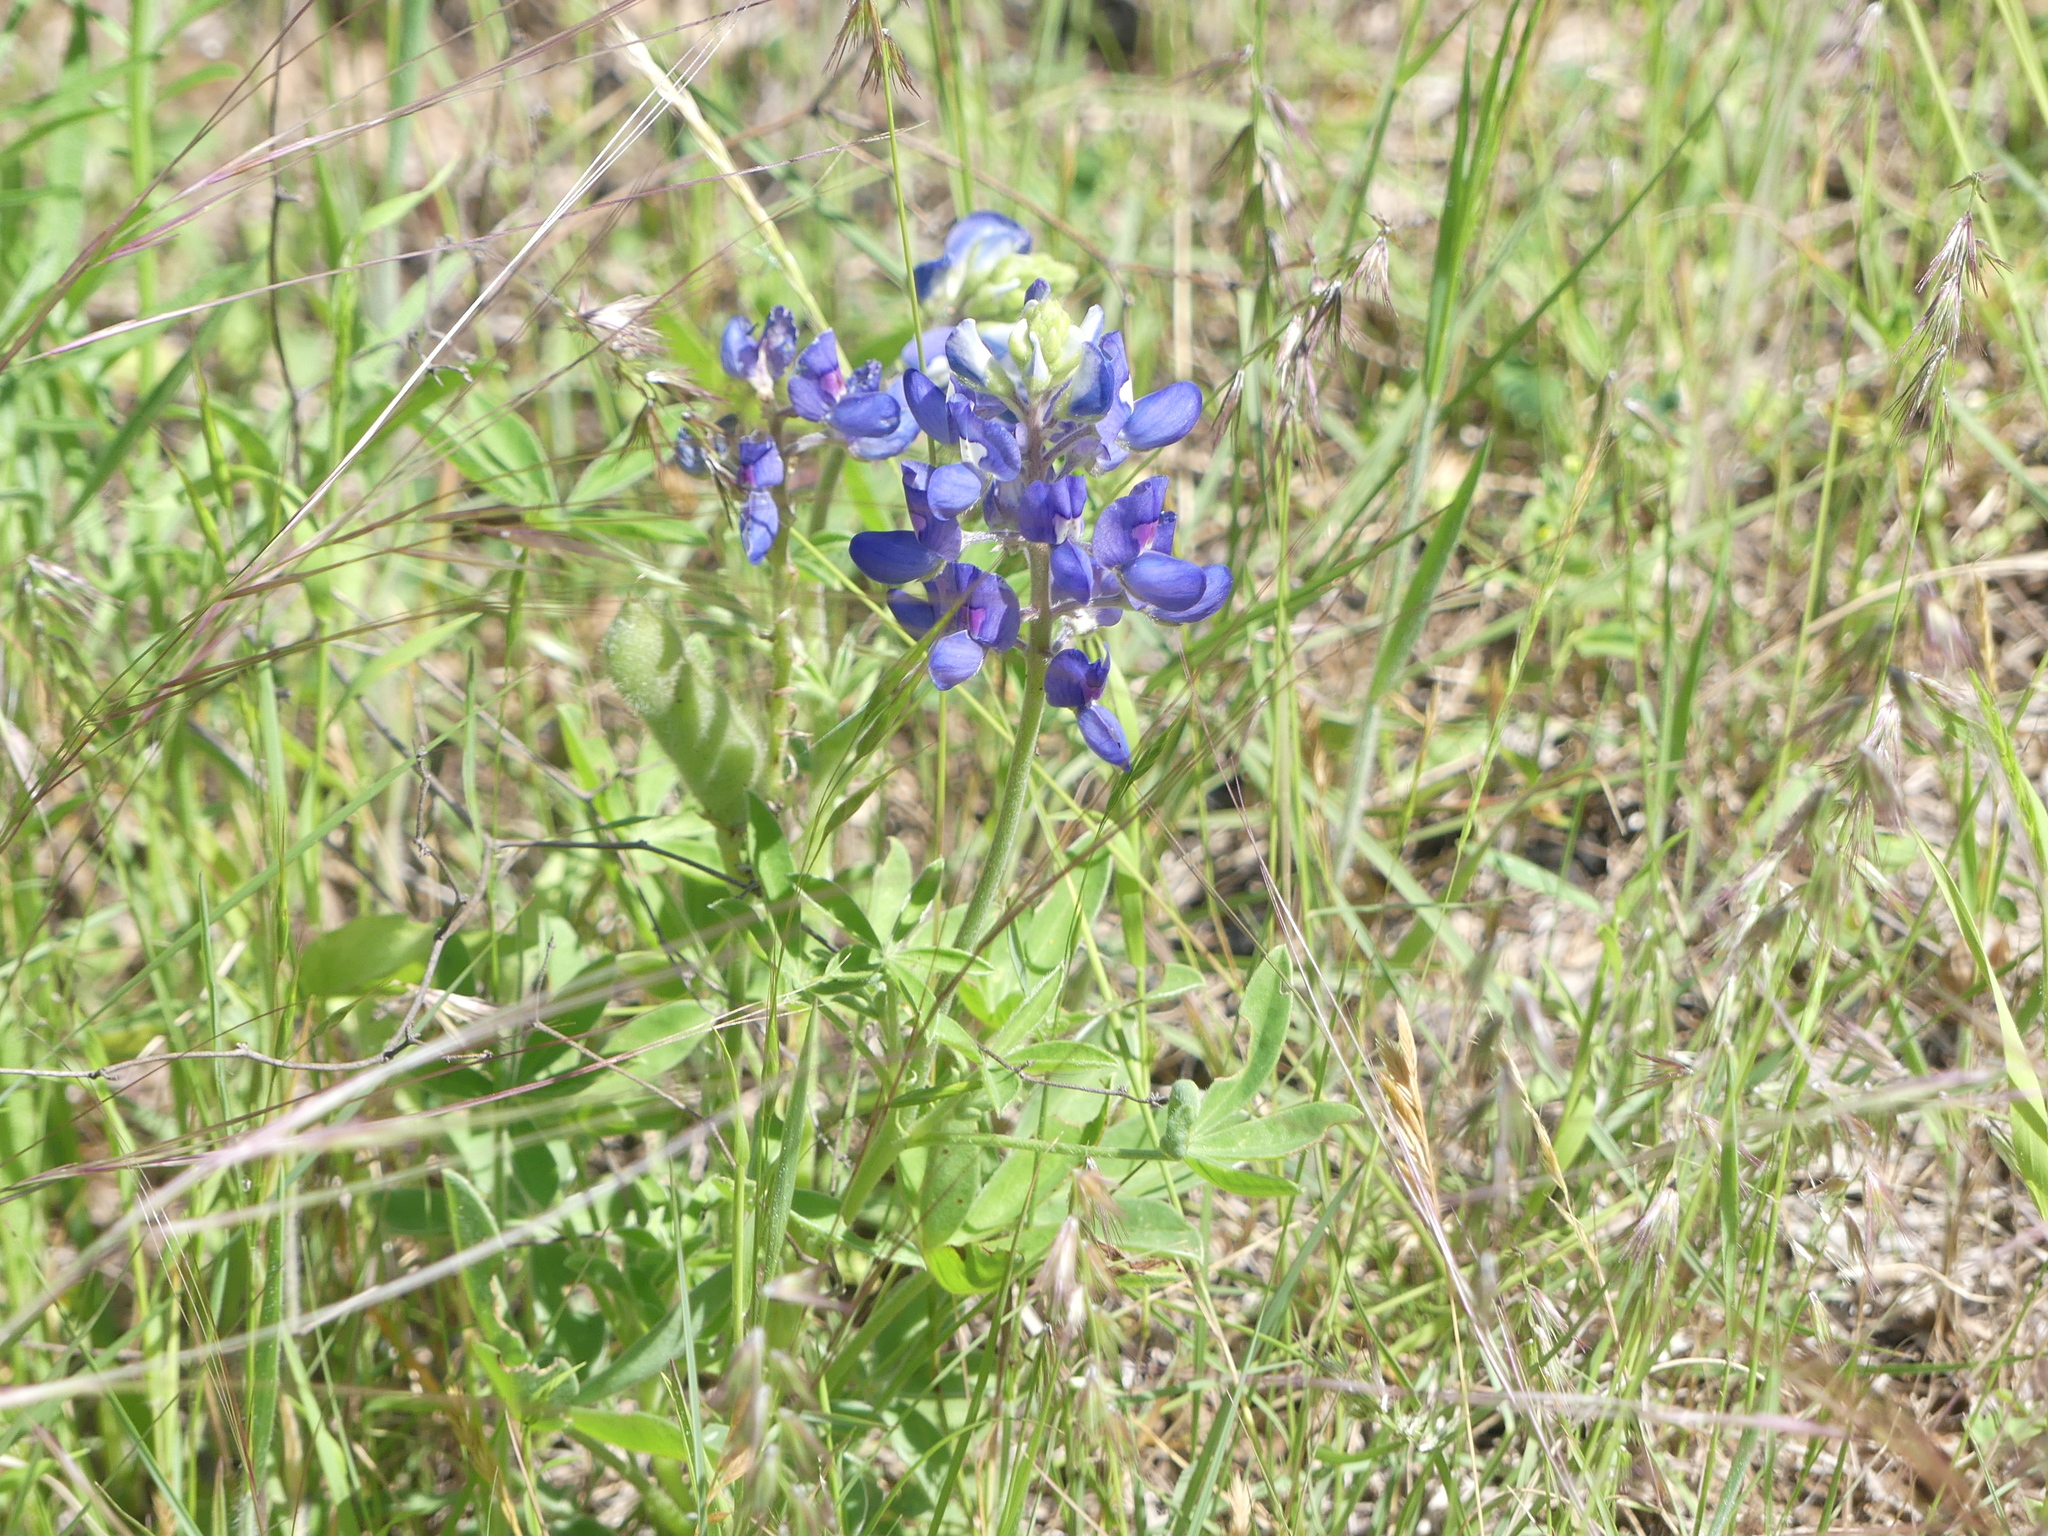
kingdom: Plantae
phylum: Tracheophyta
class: Magnoliopsida
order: Fabales
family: Fabaceae
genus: Lupinus
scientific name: Lupinus texensis
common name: Texas bluebonnet
